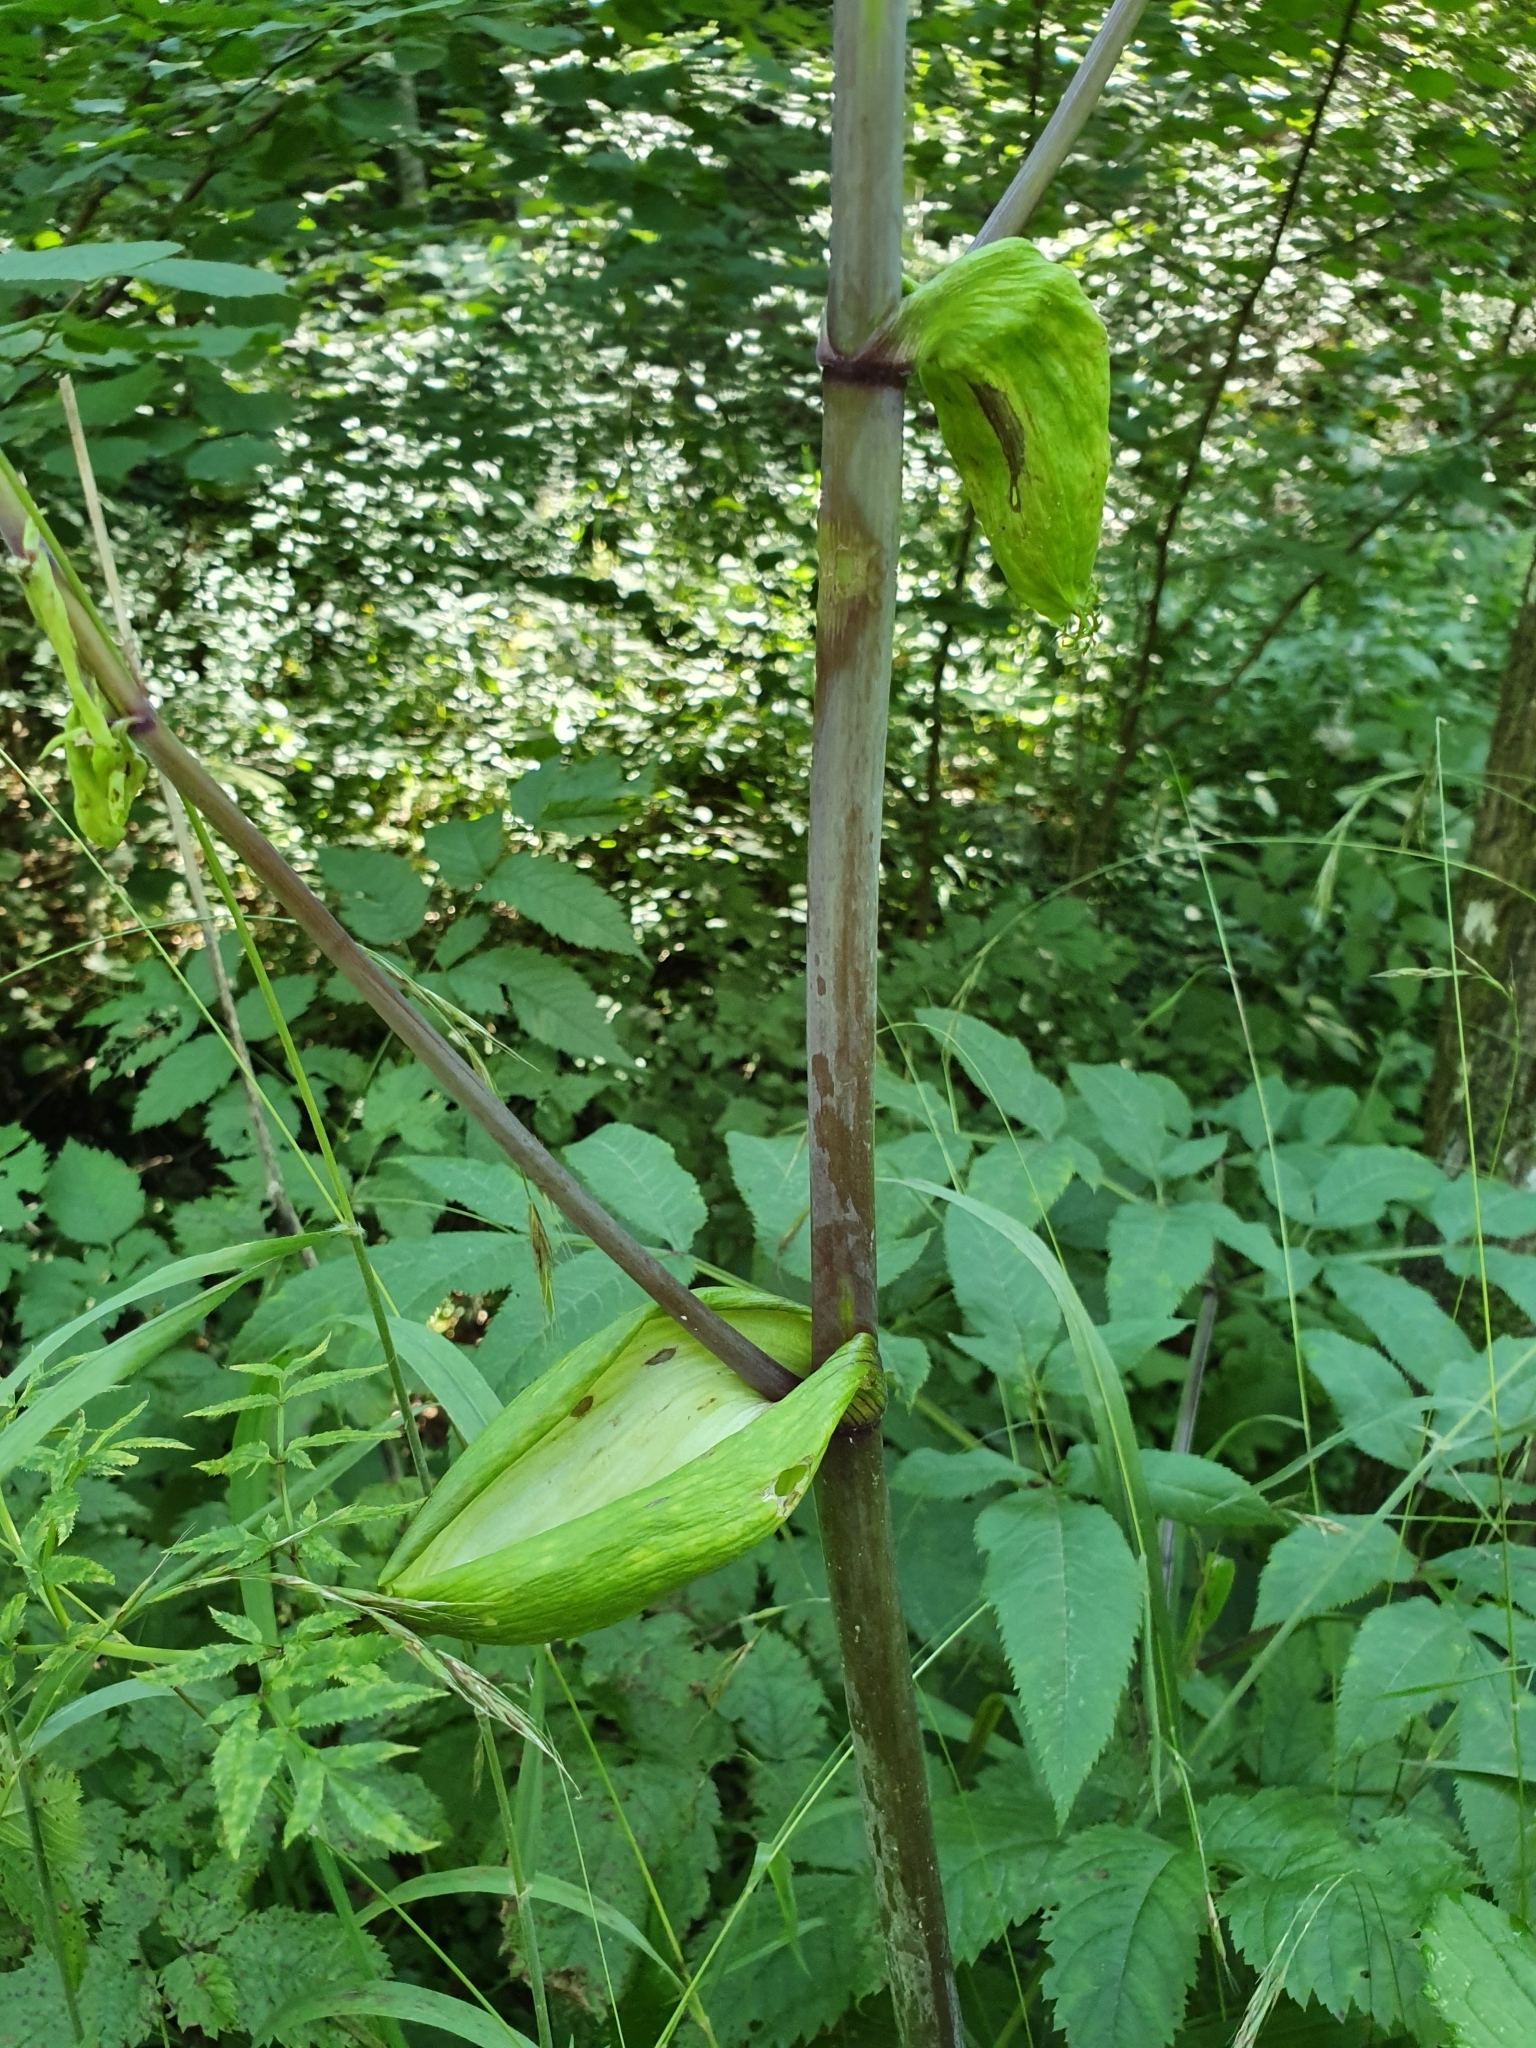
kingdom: Plantae
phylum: Tracheophyta
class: Magnoliopsida
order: Apiales
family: Apiaceae
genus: Angelica
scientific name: Angelica sylvestris
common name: Wild angelica
